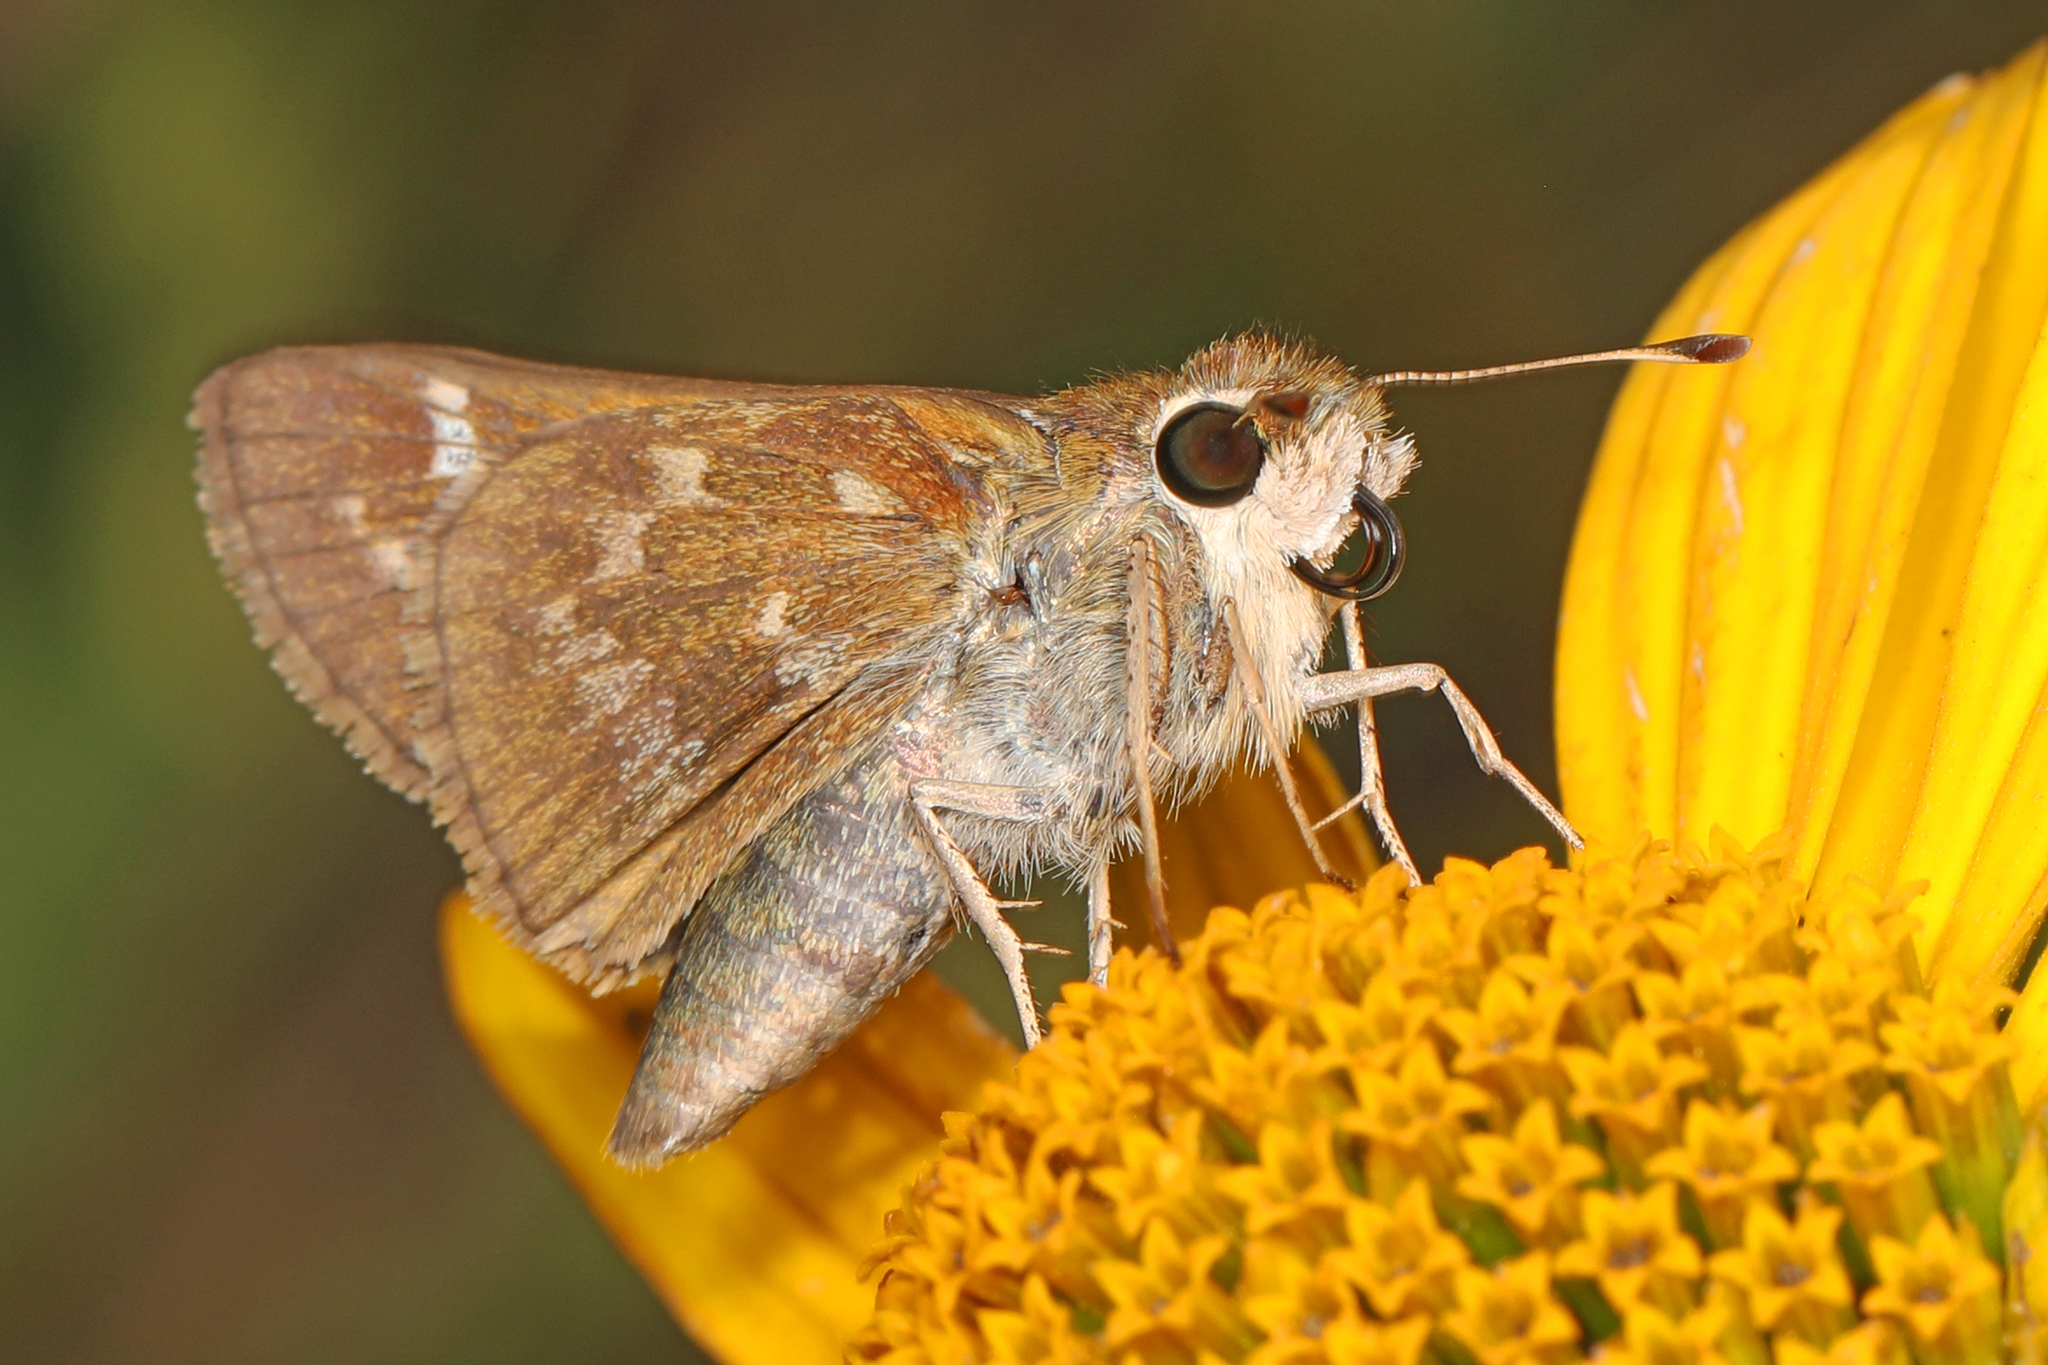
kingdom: Animalia
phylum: Arthropoda
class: Insecta
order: Lepidoptera
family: Hesperiidae
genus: Atalopedes
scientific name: Atalopedes
